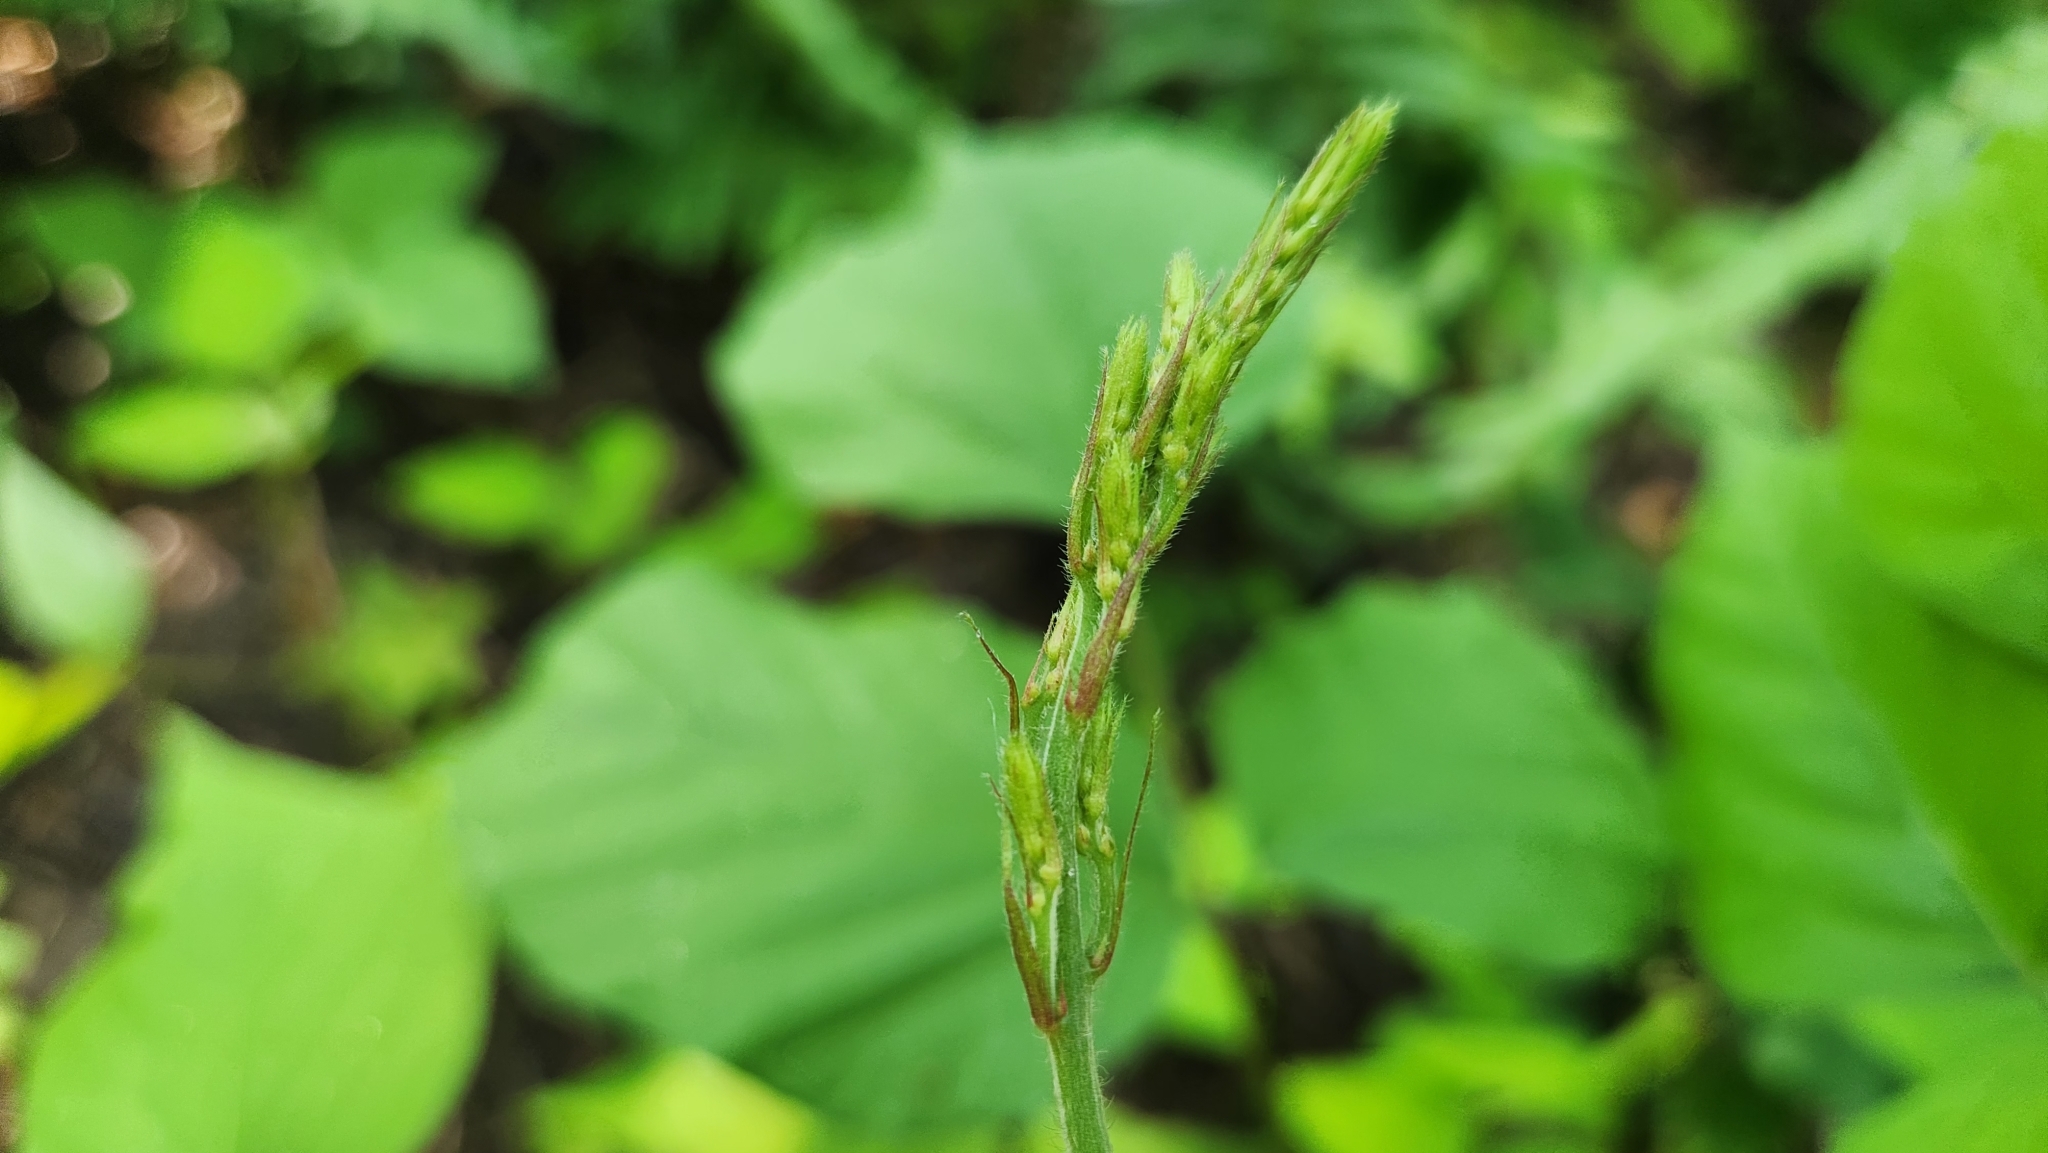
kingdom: Plantae
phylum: Tracheophyta
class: Magnoliopsida
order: Fabales
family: Fabaceae
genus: Hylodesmum
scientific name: Hylodesmum glutinosum
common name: Clustered-leaved tick-trefoil
